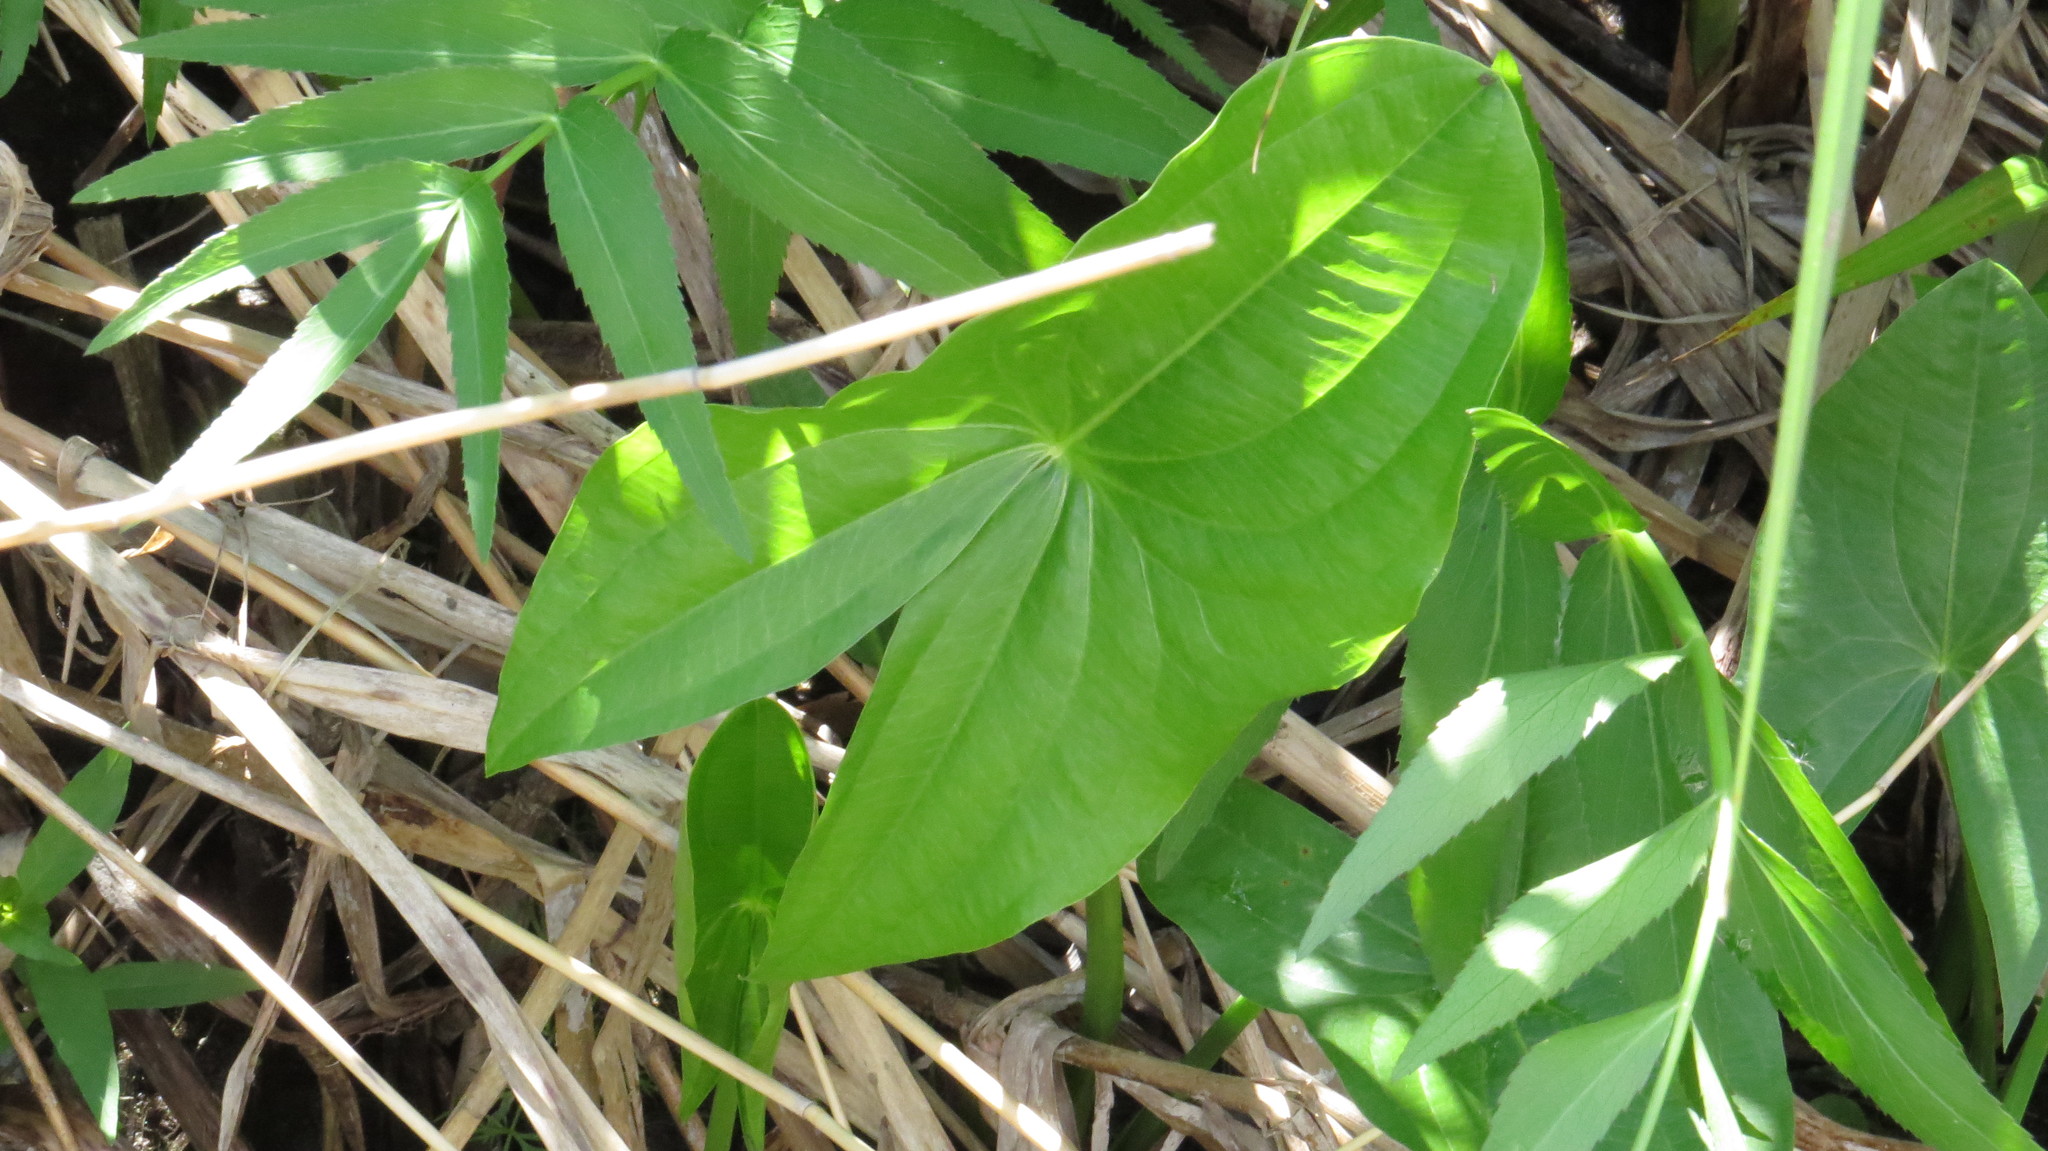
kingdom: Plantae
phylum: Tracheophyta
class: Liliopsida
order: Alismatales
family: Alismataceae
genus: Sagittaria
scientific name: Sagittaria latifolia
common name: Duck-potato
